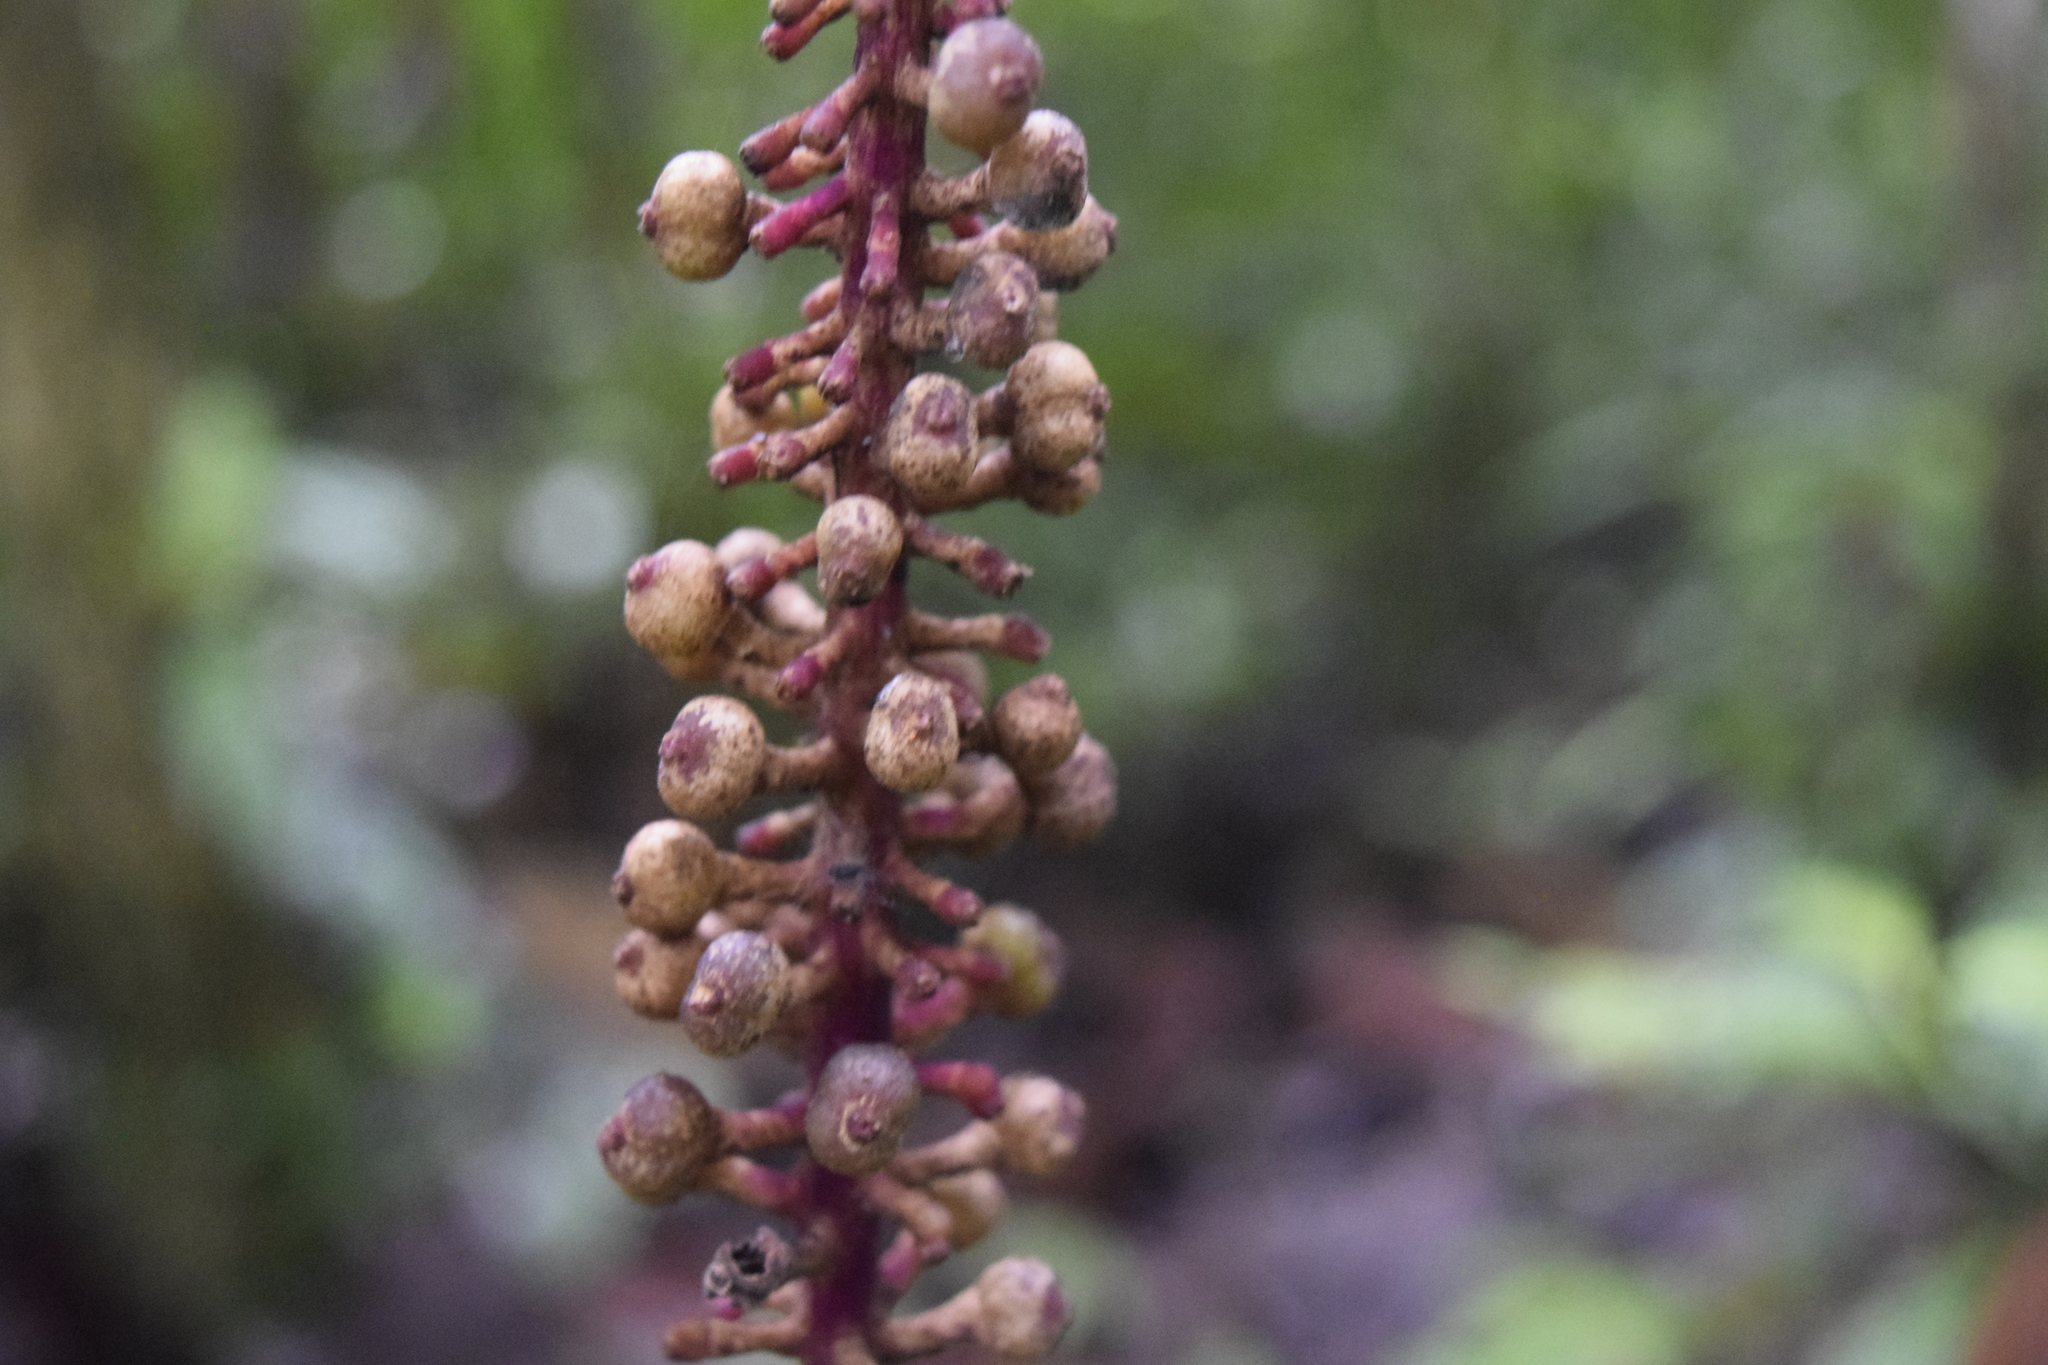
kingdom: Plantae
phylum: Tracheophyta
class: Magnoliopsida
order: Gentianales
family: Rubiaceae
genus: Palicourea
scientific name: Palicourea subspicata
